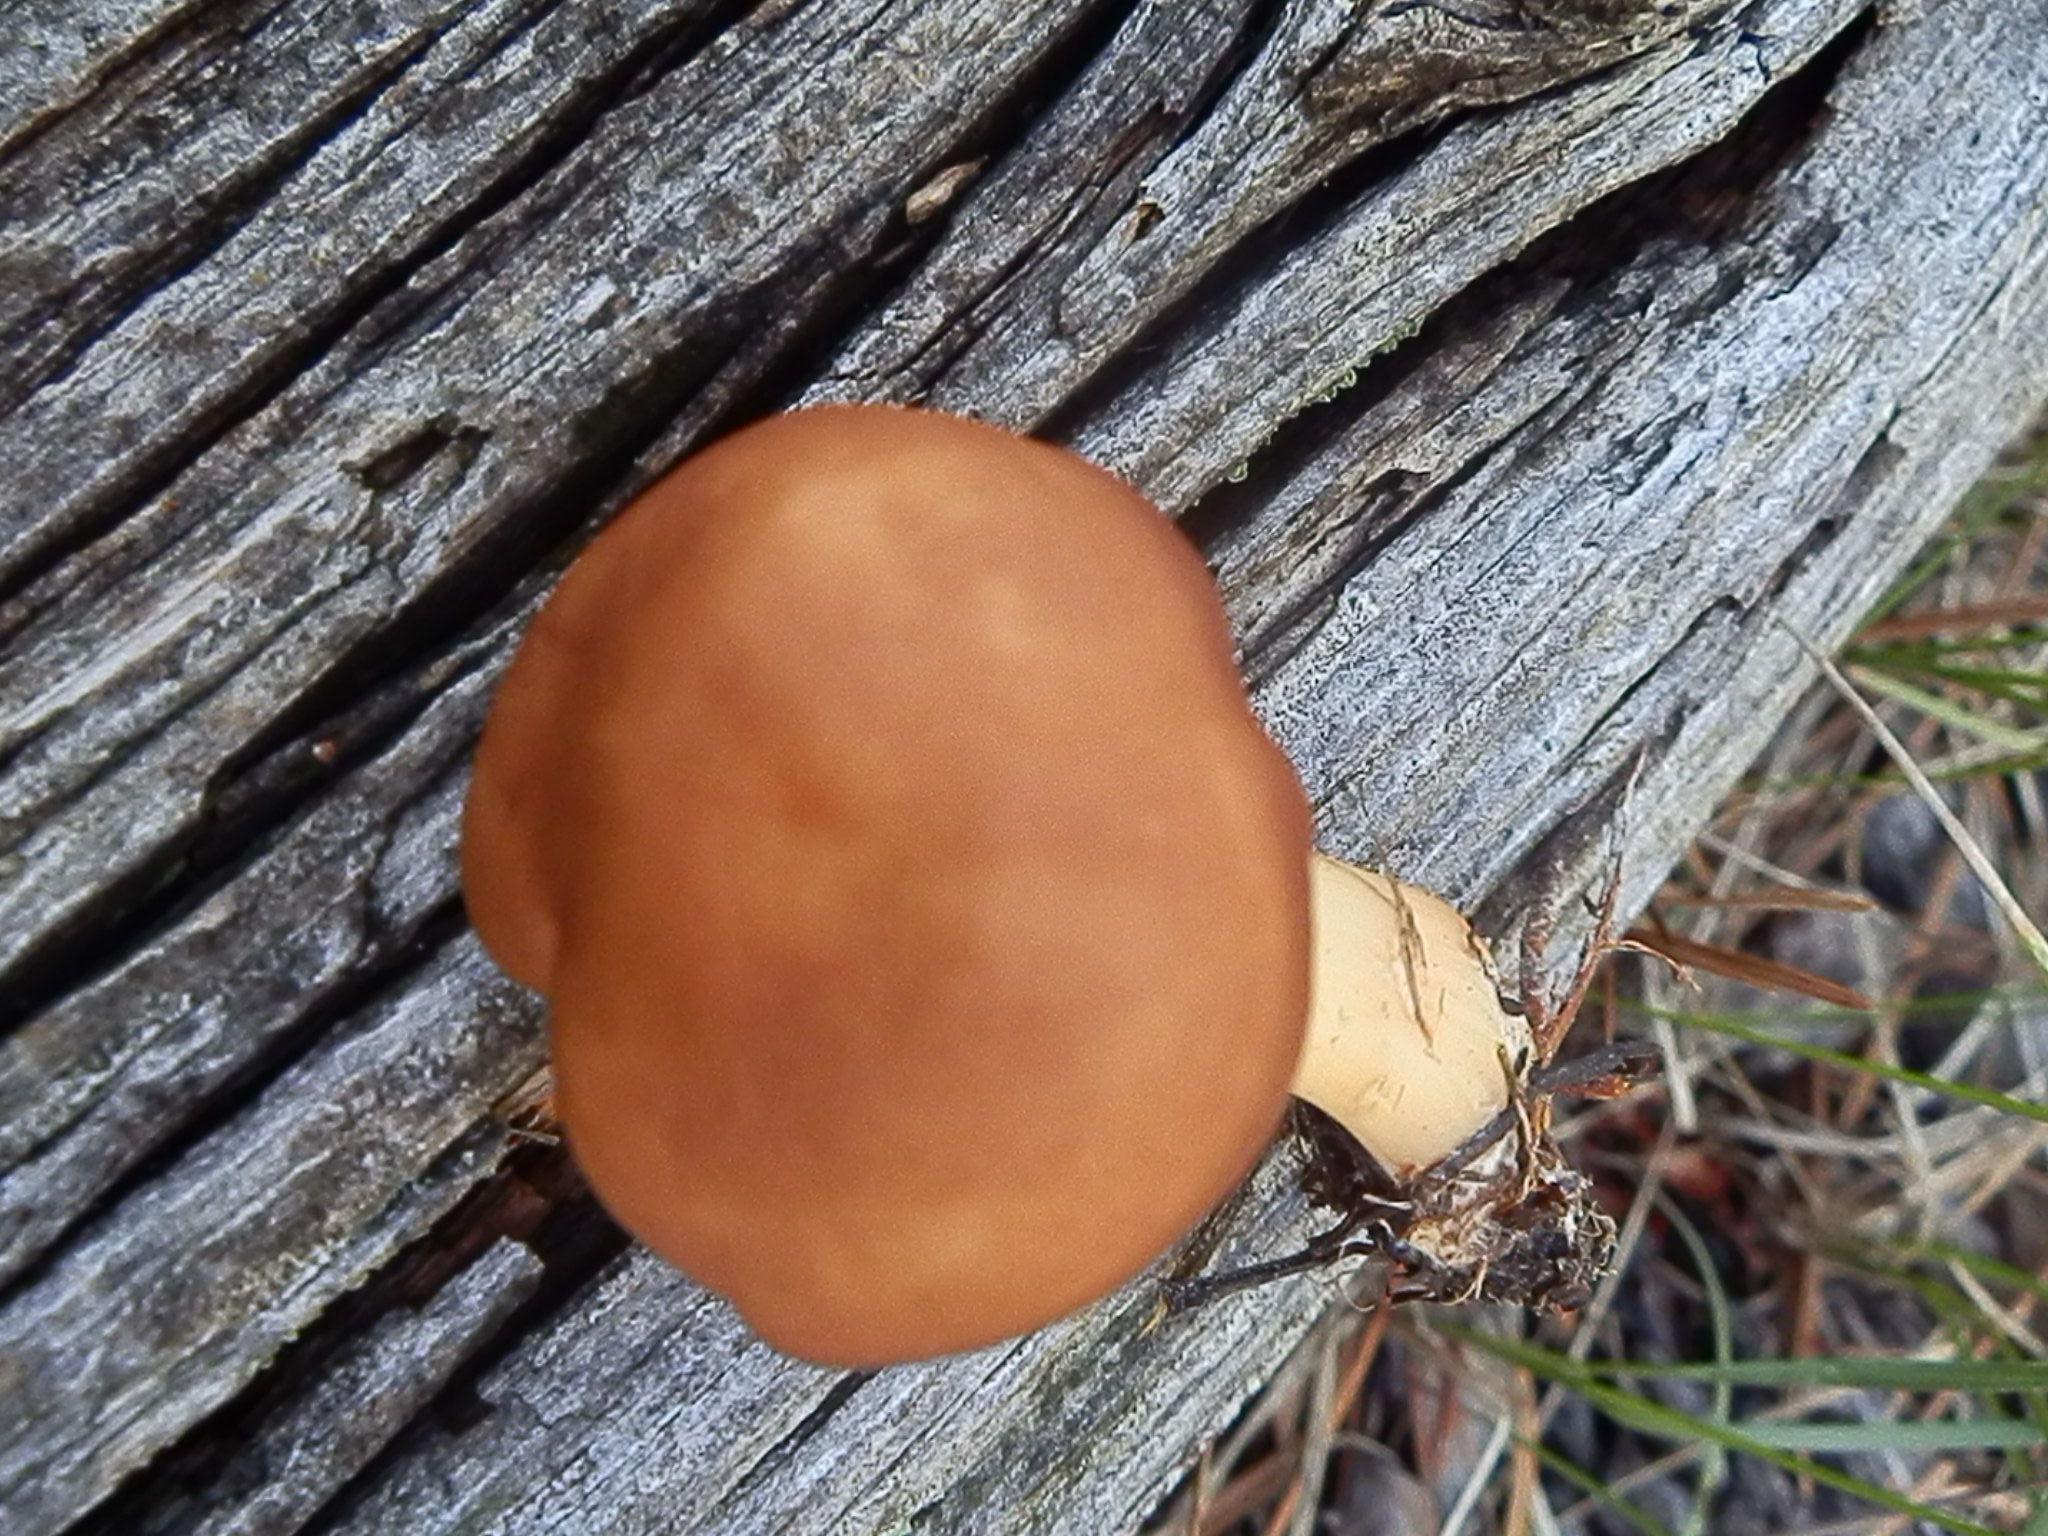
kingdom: Fungi
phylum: Basidiomycota
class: Agaricomycetes
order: Agaricales
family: Omphalotaceae
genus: Gymnopus
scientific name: Gymnopus dryophilus
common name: Penny top
